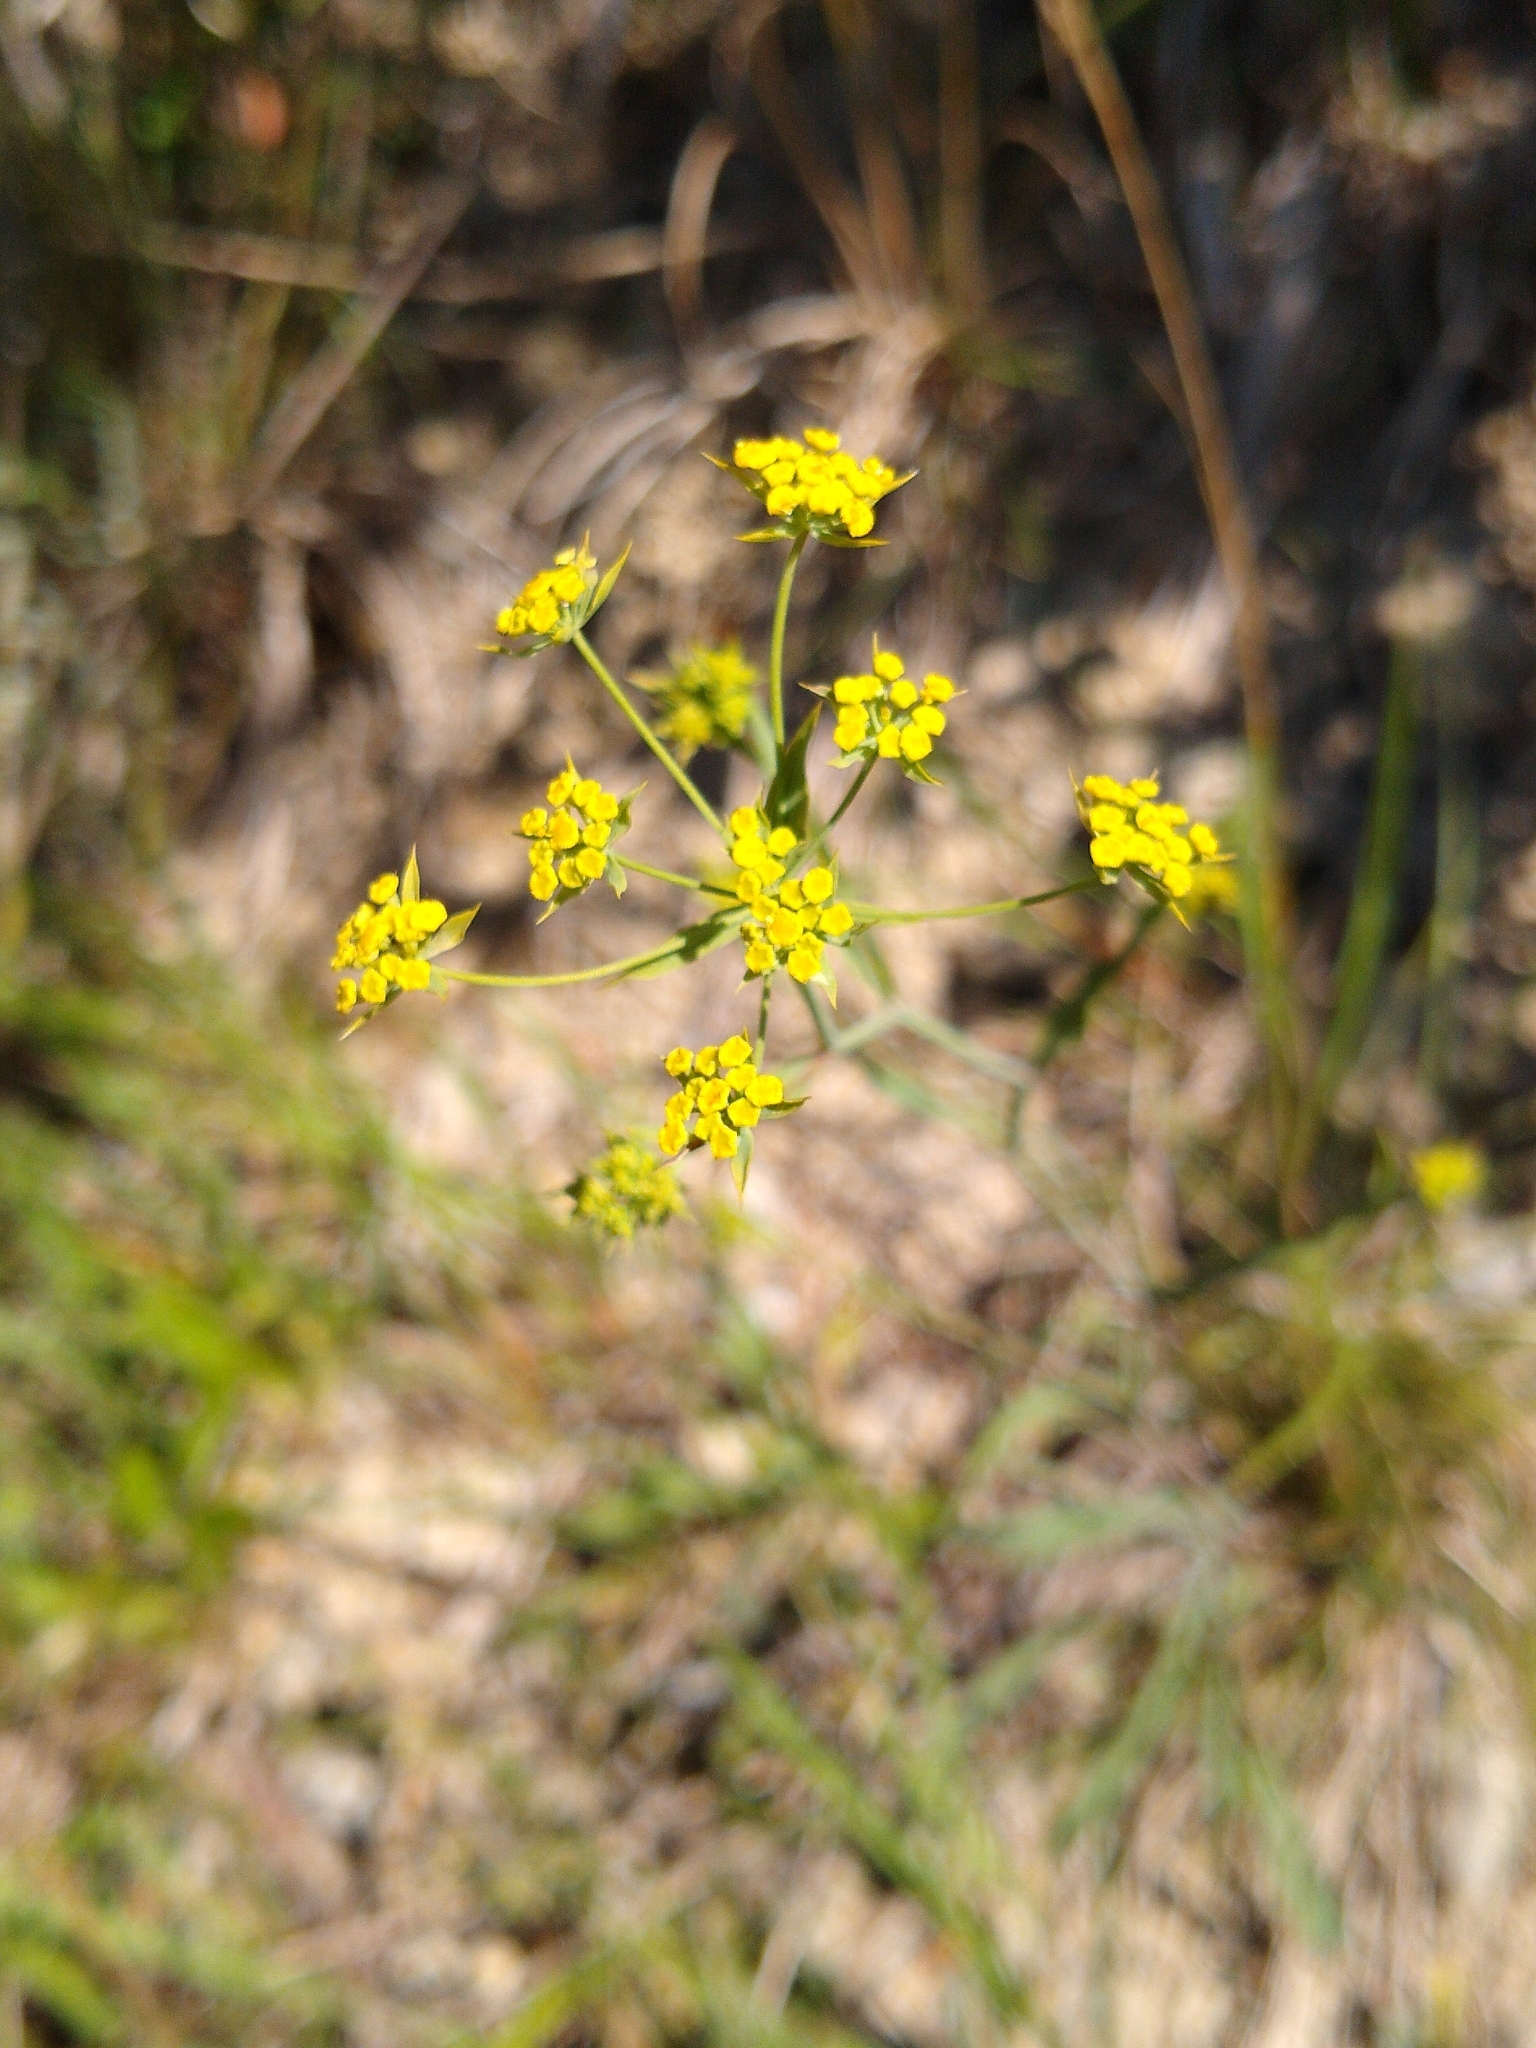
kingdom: Plantae
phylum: Tracheophyta
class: Magnoliopsida
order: Apiales
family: Apiaceae
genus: Bupleurum
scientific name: Bupleurum falcatum
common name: Sickle-leaved hare's-ear
